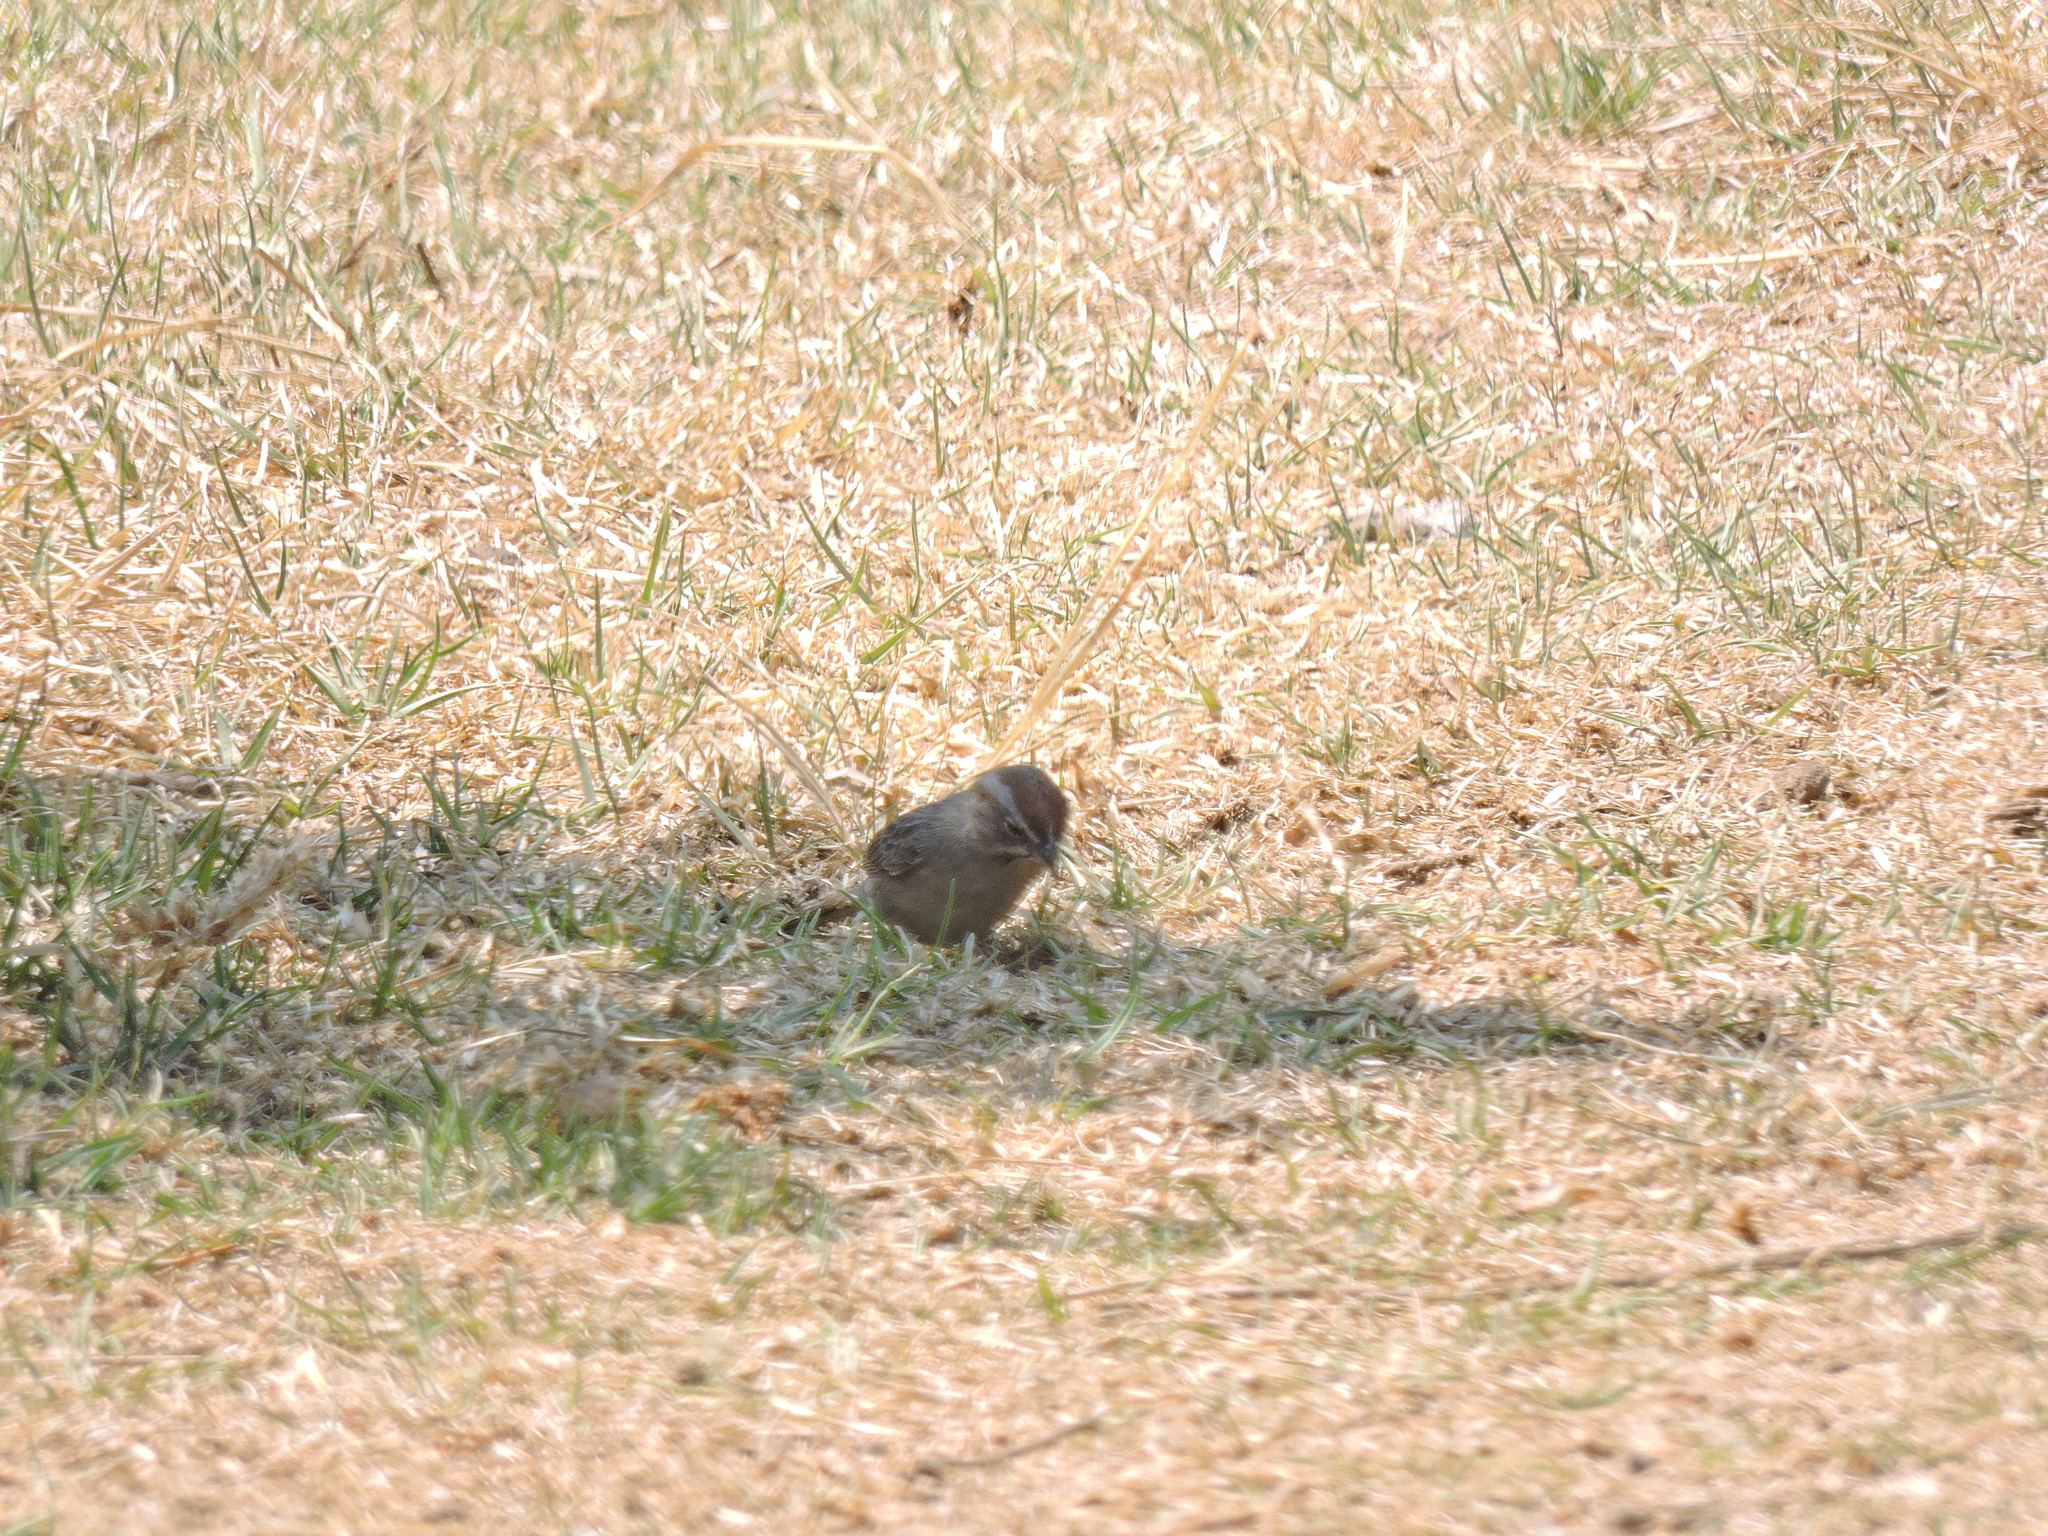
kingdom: Animalia
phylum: Chordata
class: Aves
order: Passeriformes
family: Passerellidae
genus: Aimophila
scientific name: Aimophila ruficeps
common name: Rufous-crowned sparrow
